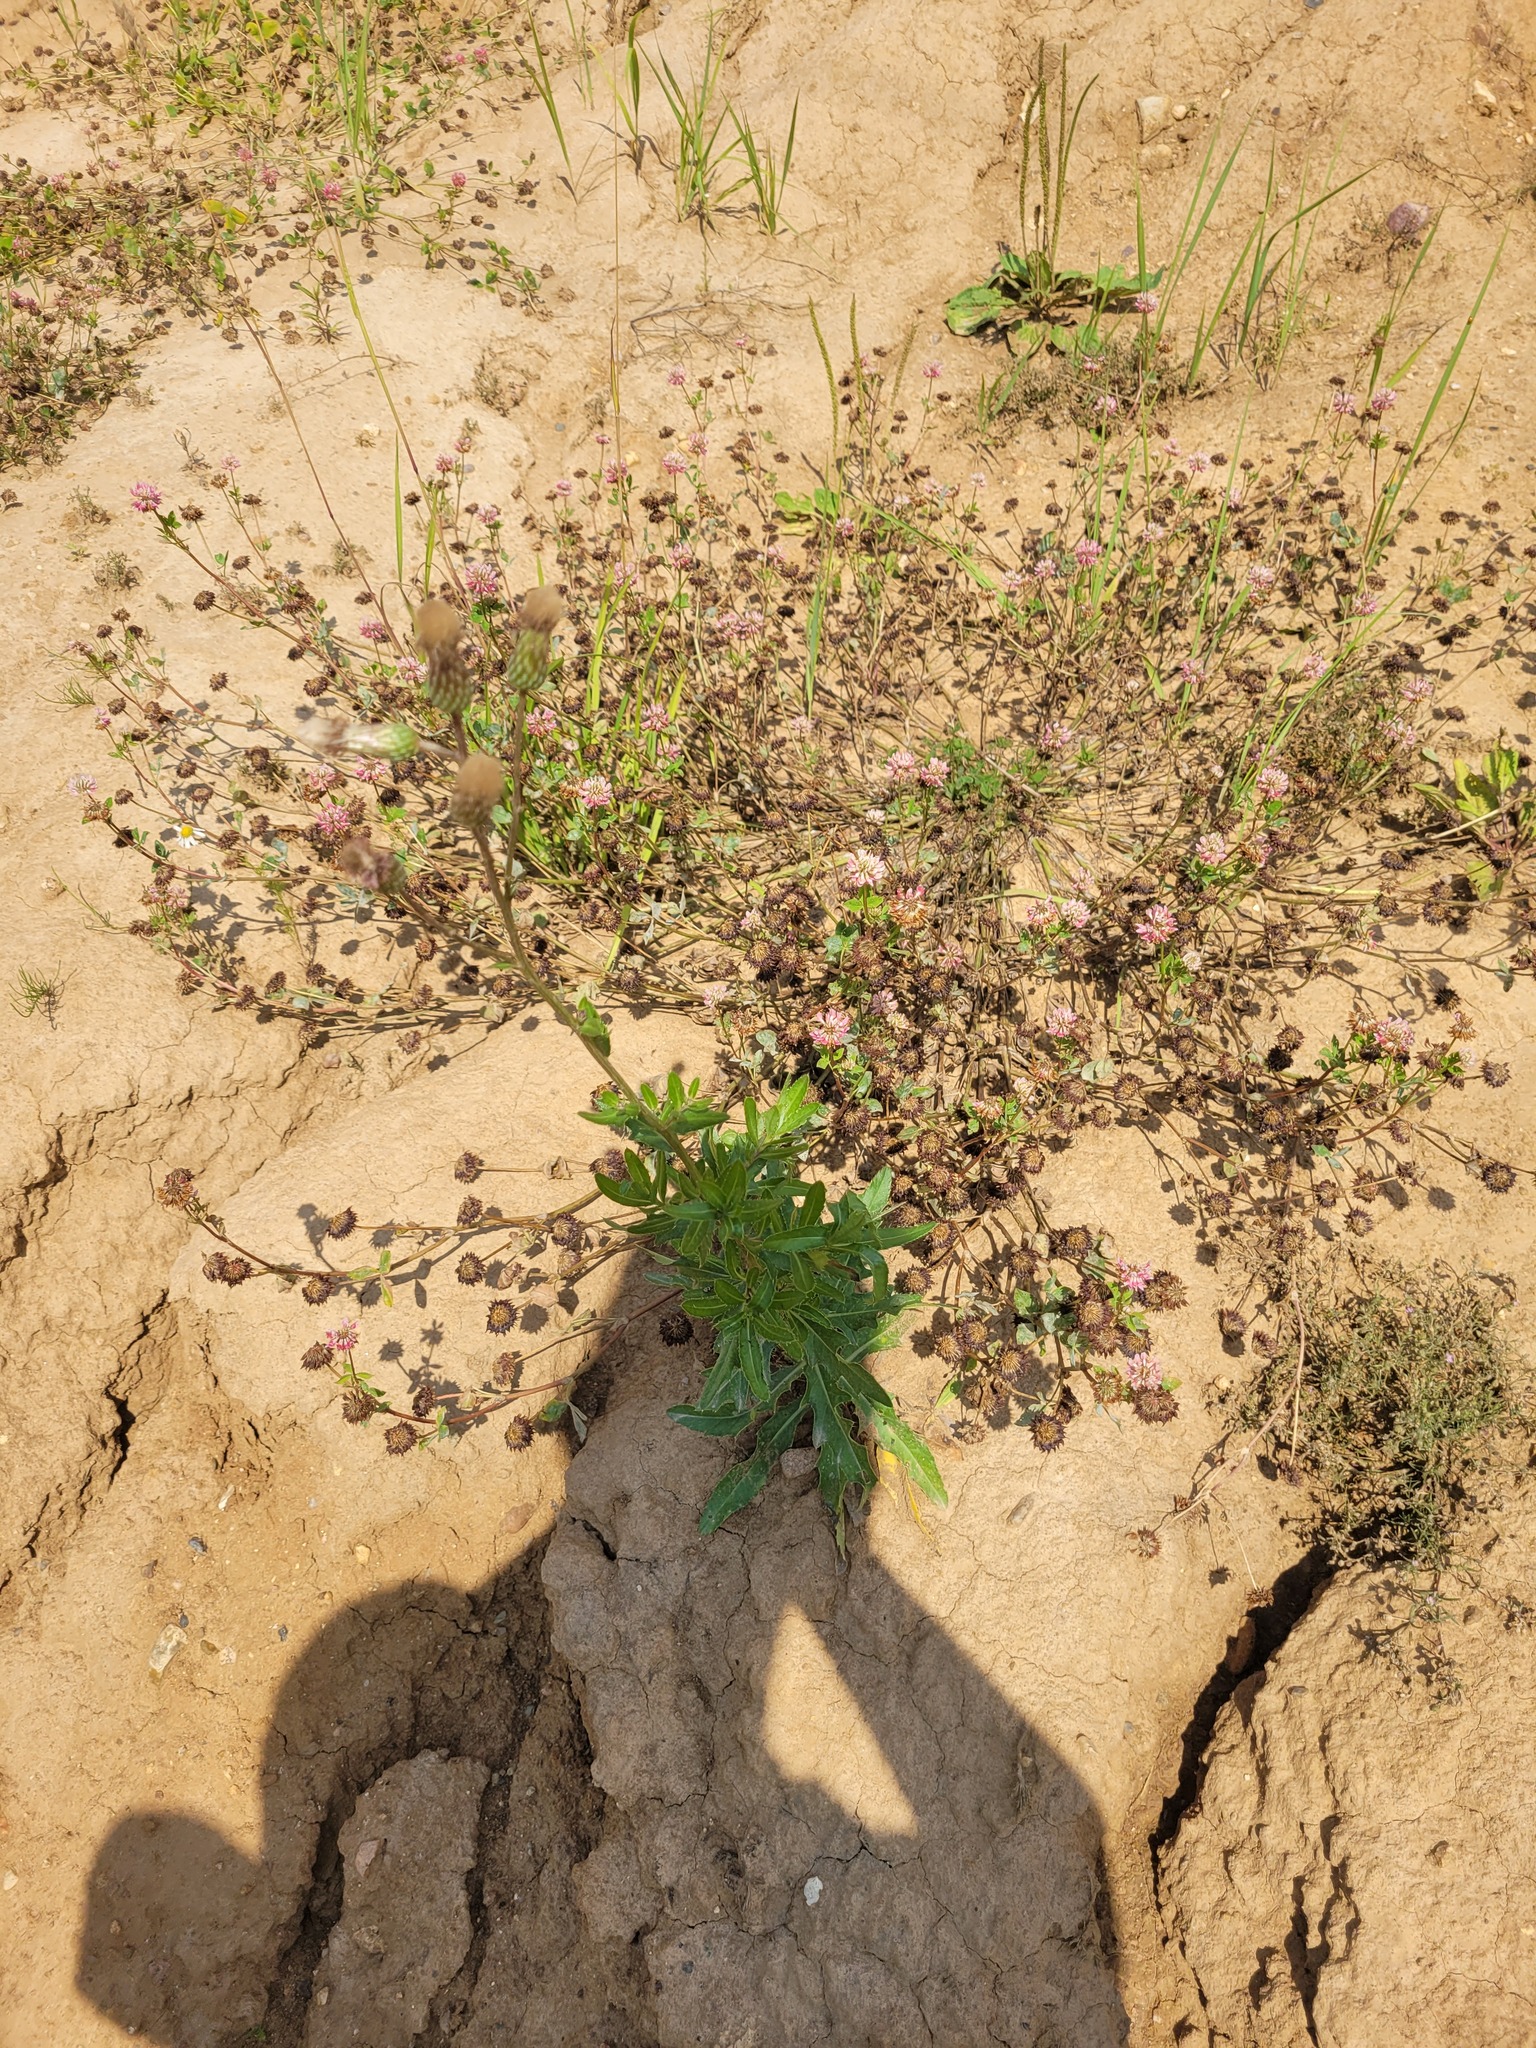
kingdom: Plantae
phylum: Tracheophyta
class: Magnoliopsida
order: Fabales
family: Fabaceae
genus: Trifolium
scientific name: Trifolium hybridum
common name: Alsike clover
